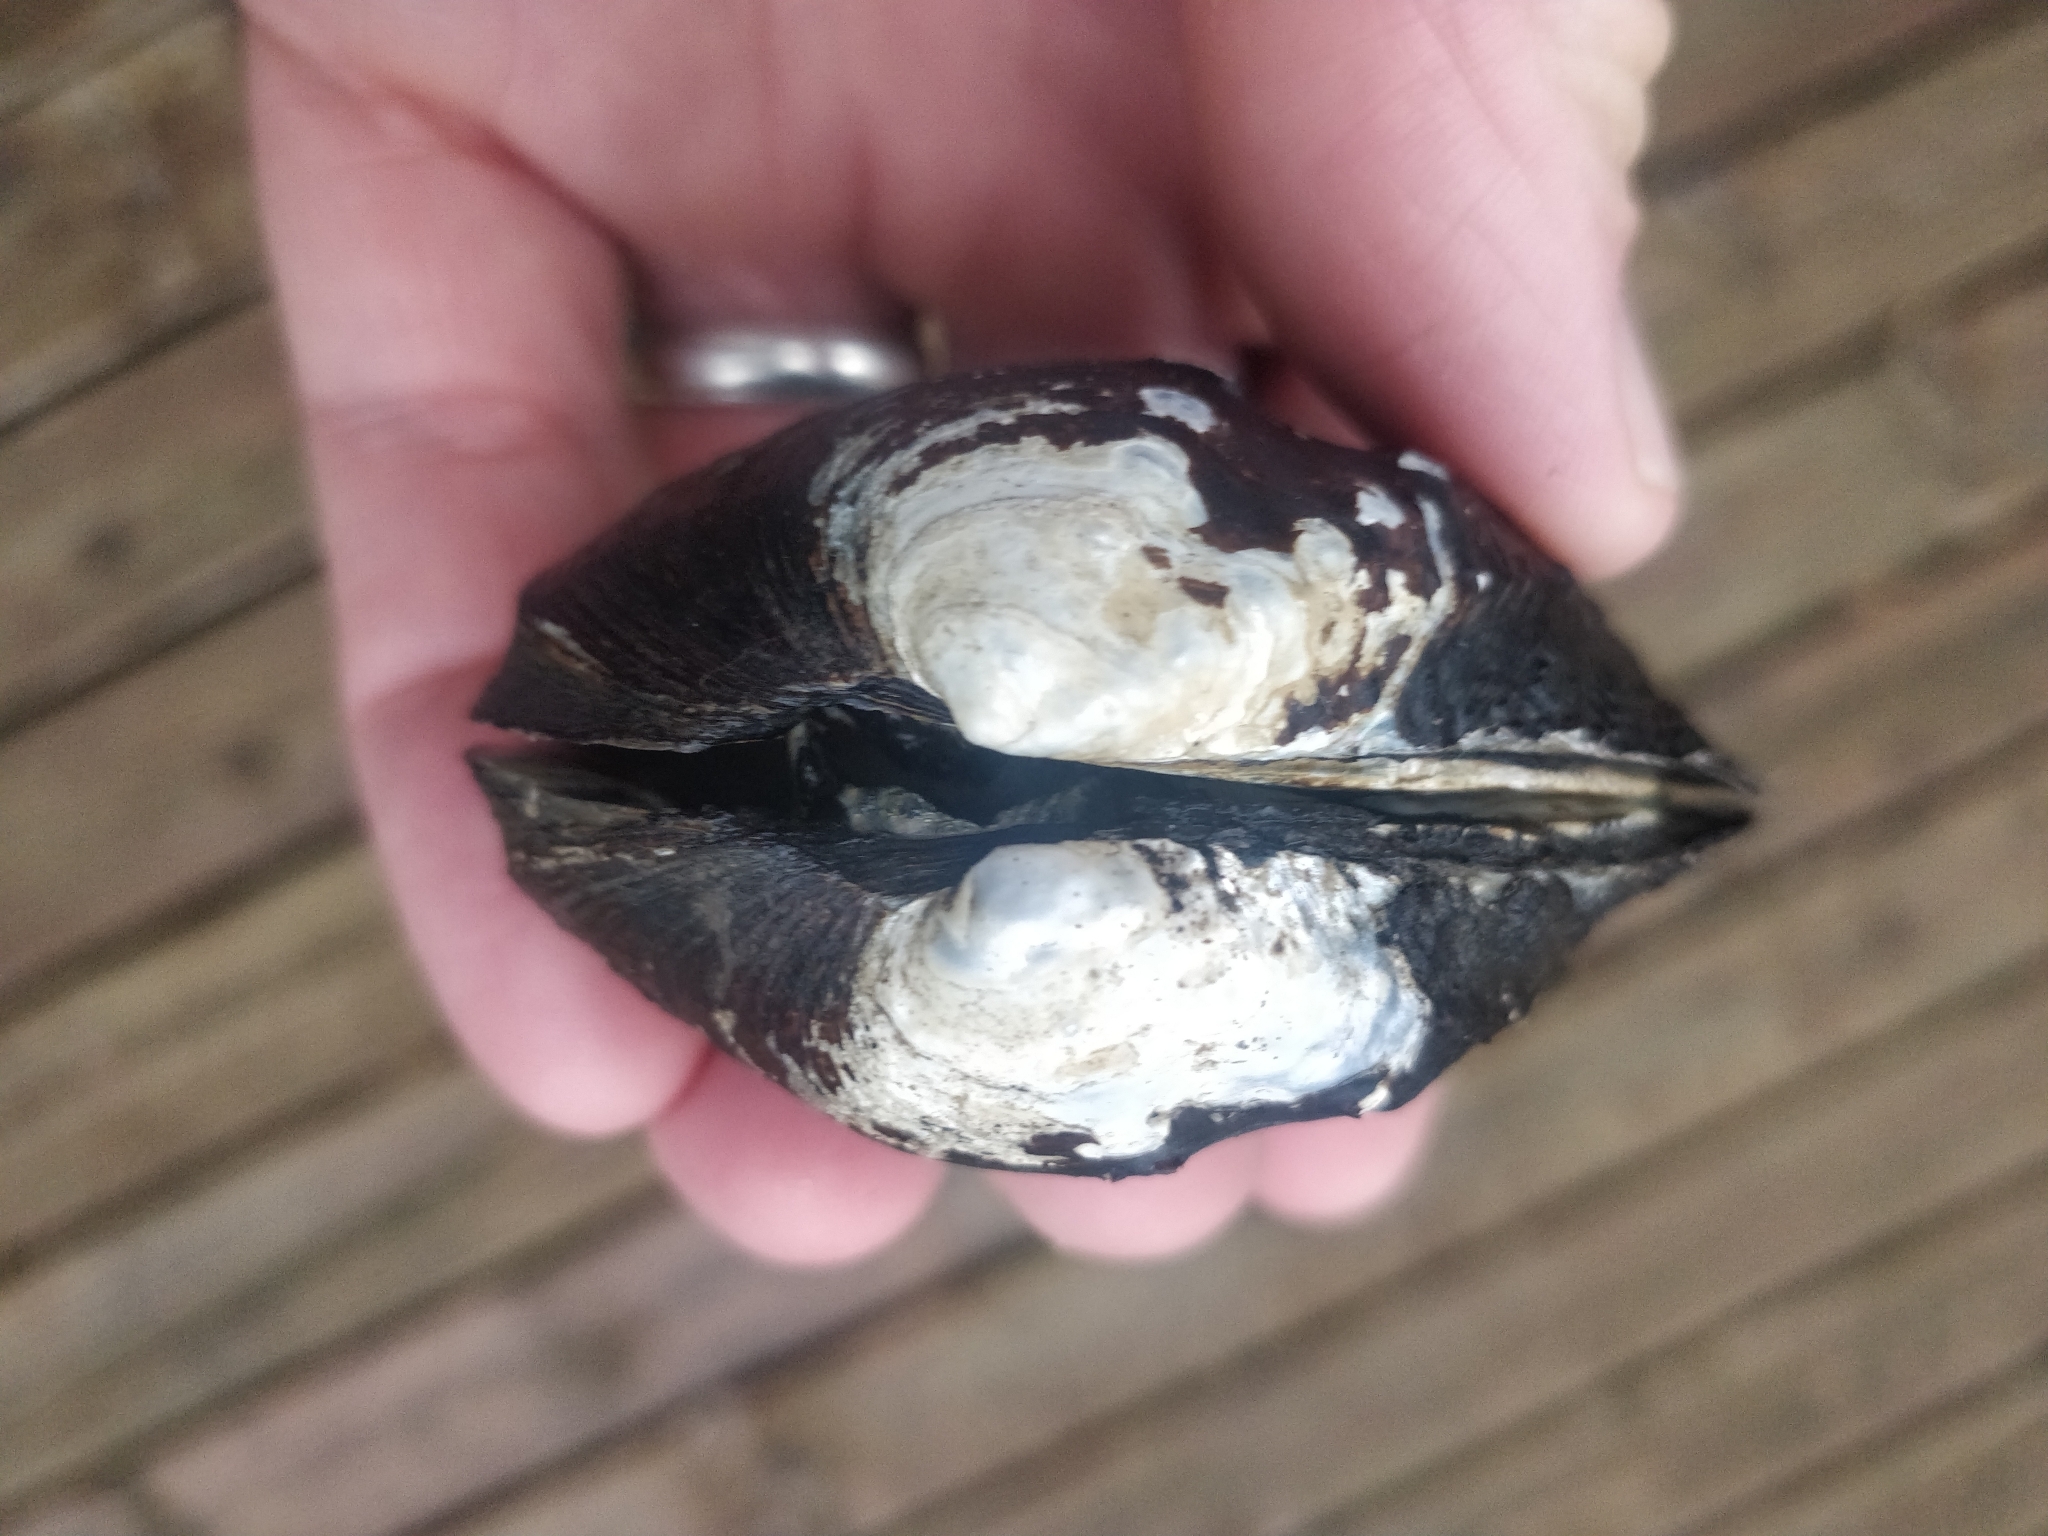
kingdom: Animalia
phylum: Mollusca
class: Bivalvia
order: Unionida
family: Unionidae
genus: Tritogonia
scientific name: Tritogonia nobilis
